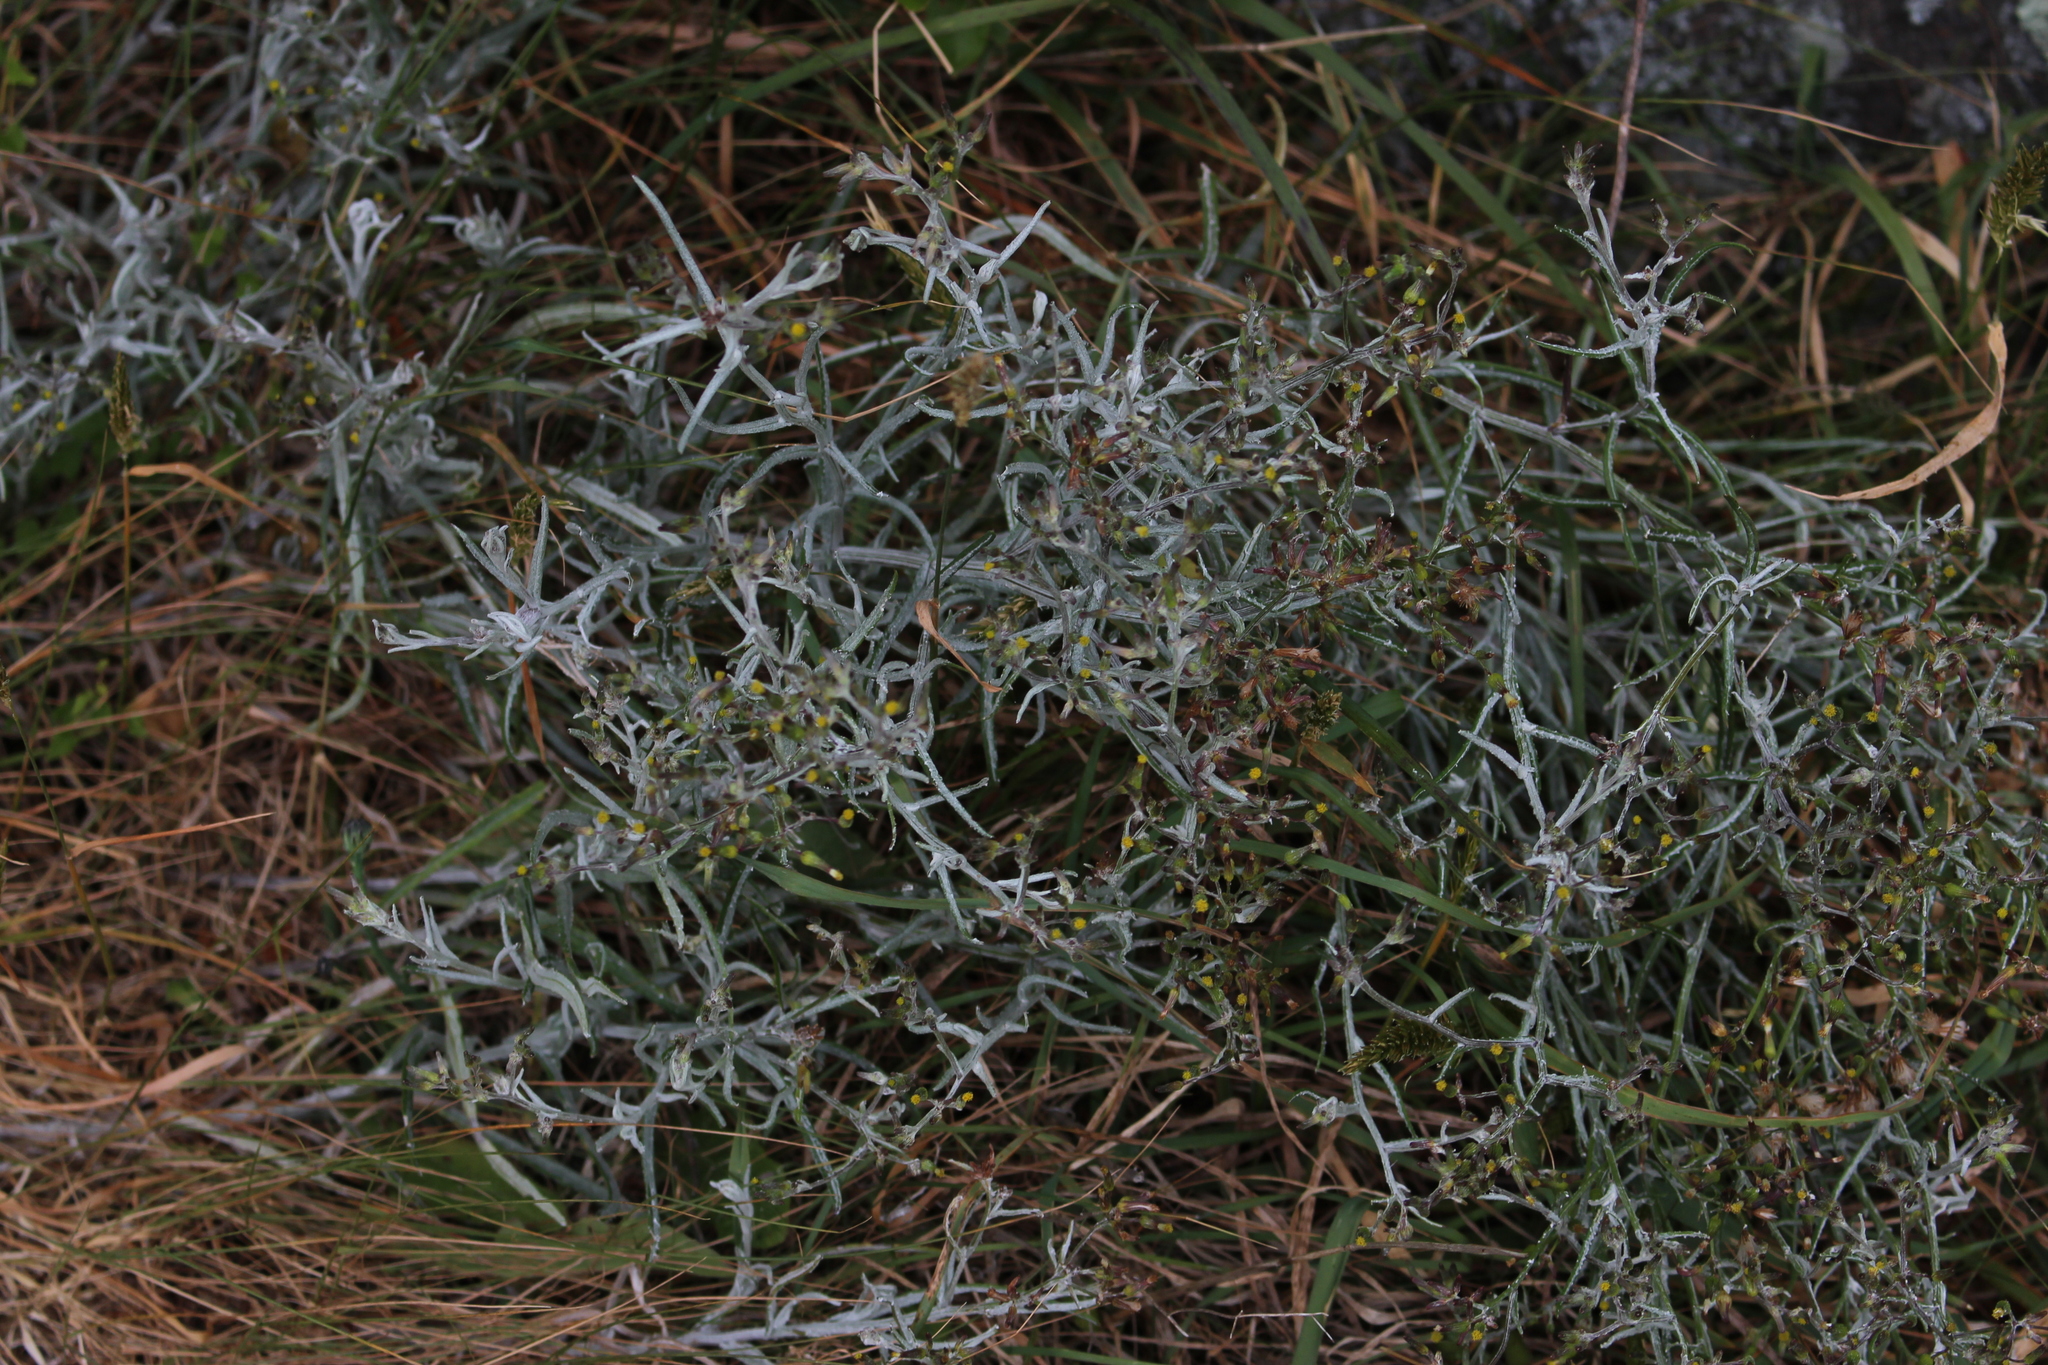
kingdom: Plantae
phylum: Tracheophyta
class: Magnoliopsida
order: Asterales
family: Asteraceae
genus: Senecio
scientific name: Senecio quadridentatus
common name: Cotton fireweed
